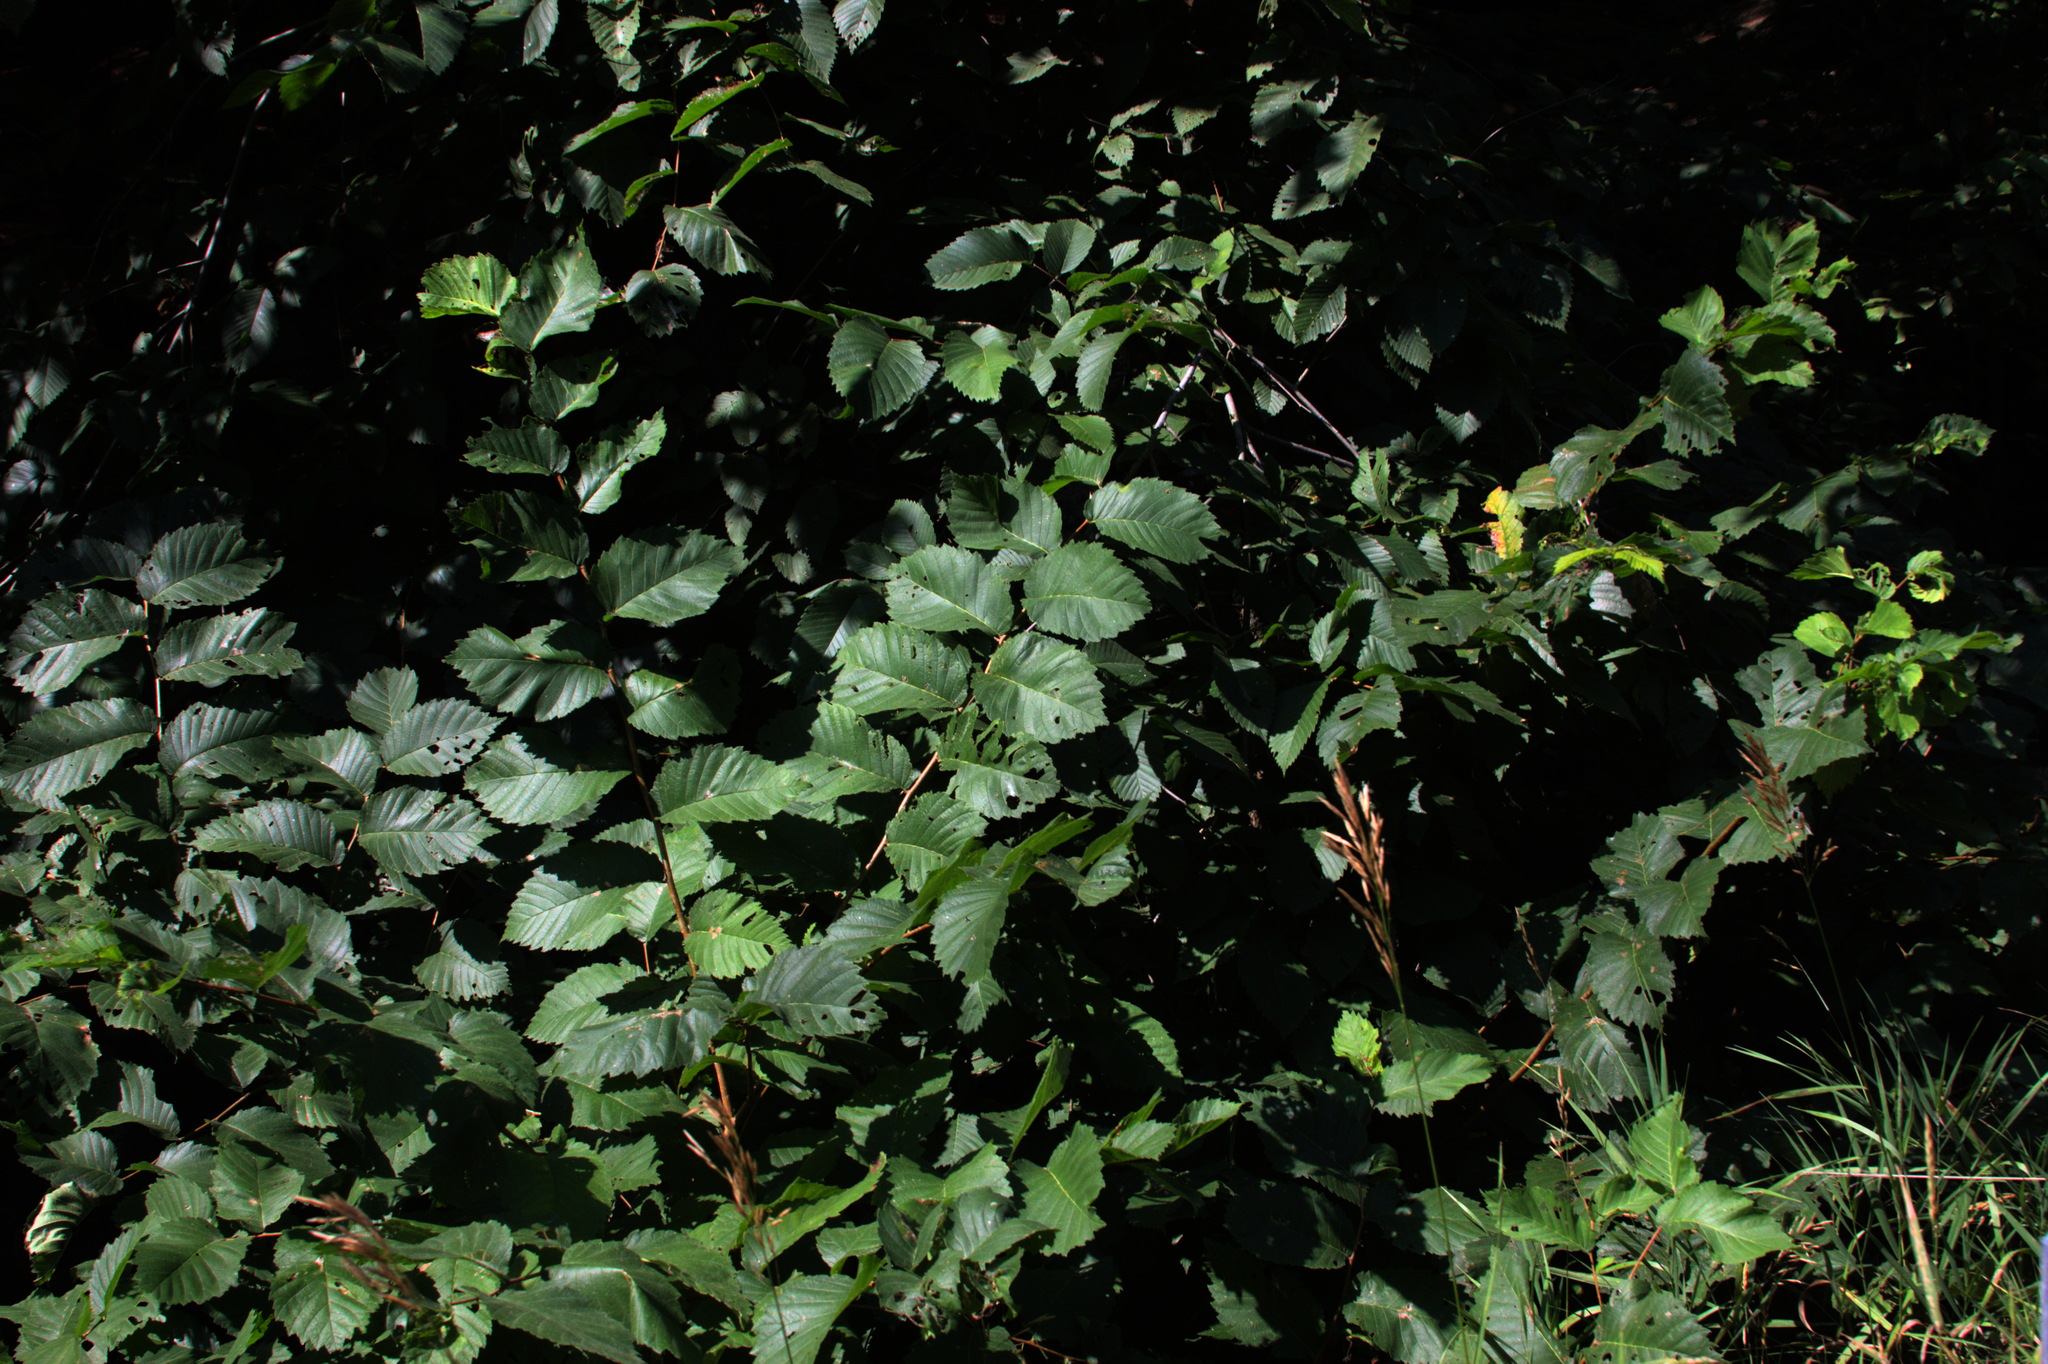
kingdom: Plantae
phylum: Tracheophyta
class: Magnoliopsida
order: Rosales
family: Ulmaceae
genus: Ulmus
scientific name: Ulmus americana
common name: American elm
